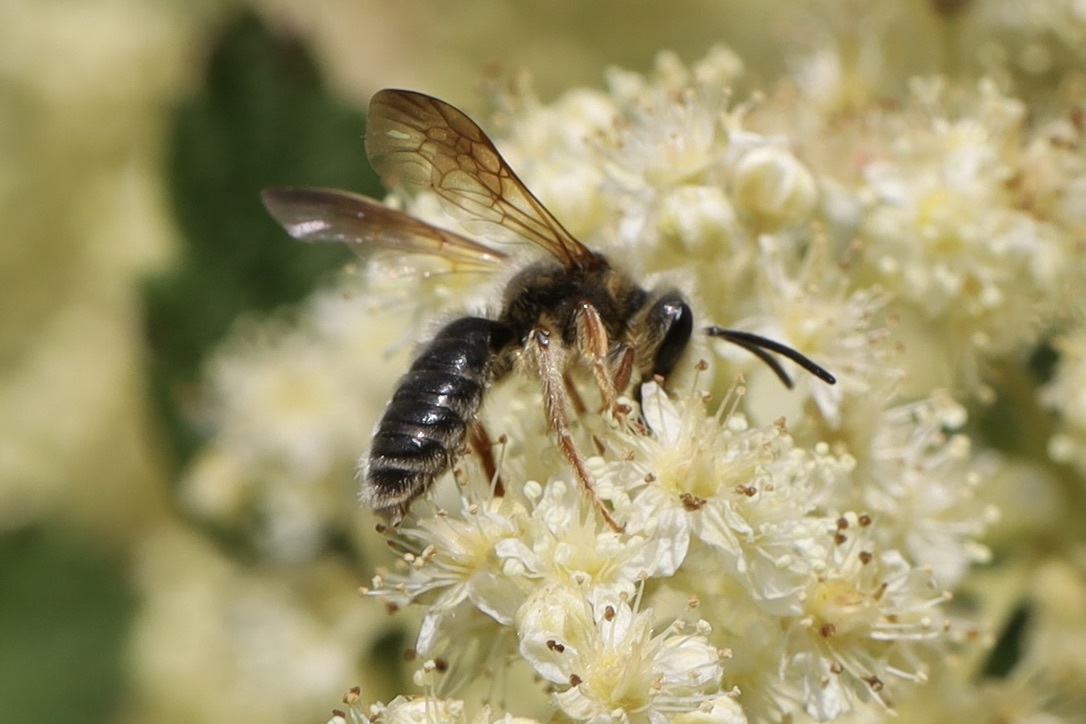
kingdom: Animalia
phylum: Arthropoda
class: Insecta
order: Hymenoptera
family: Andrenidae
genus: Andrena
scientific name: Andrena prunorum
